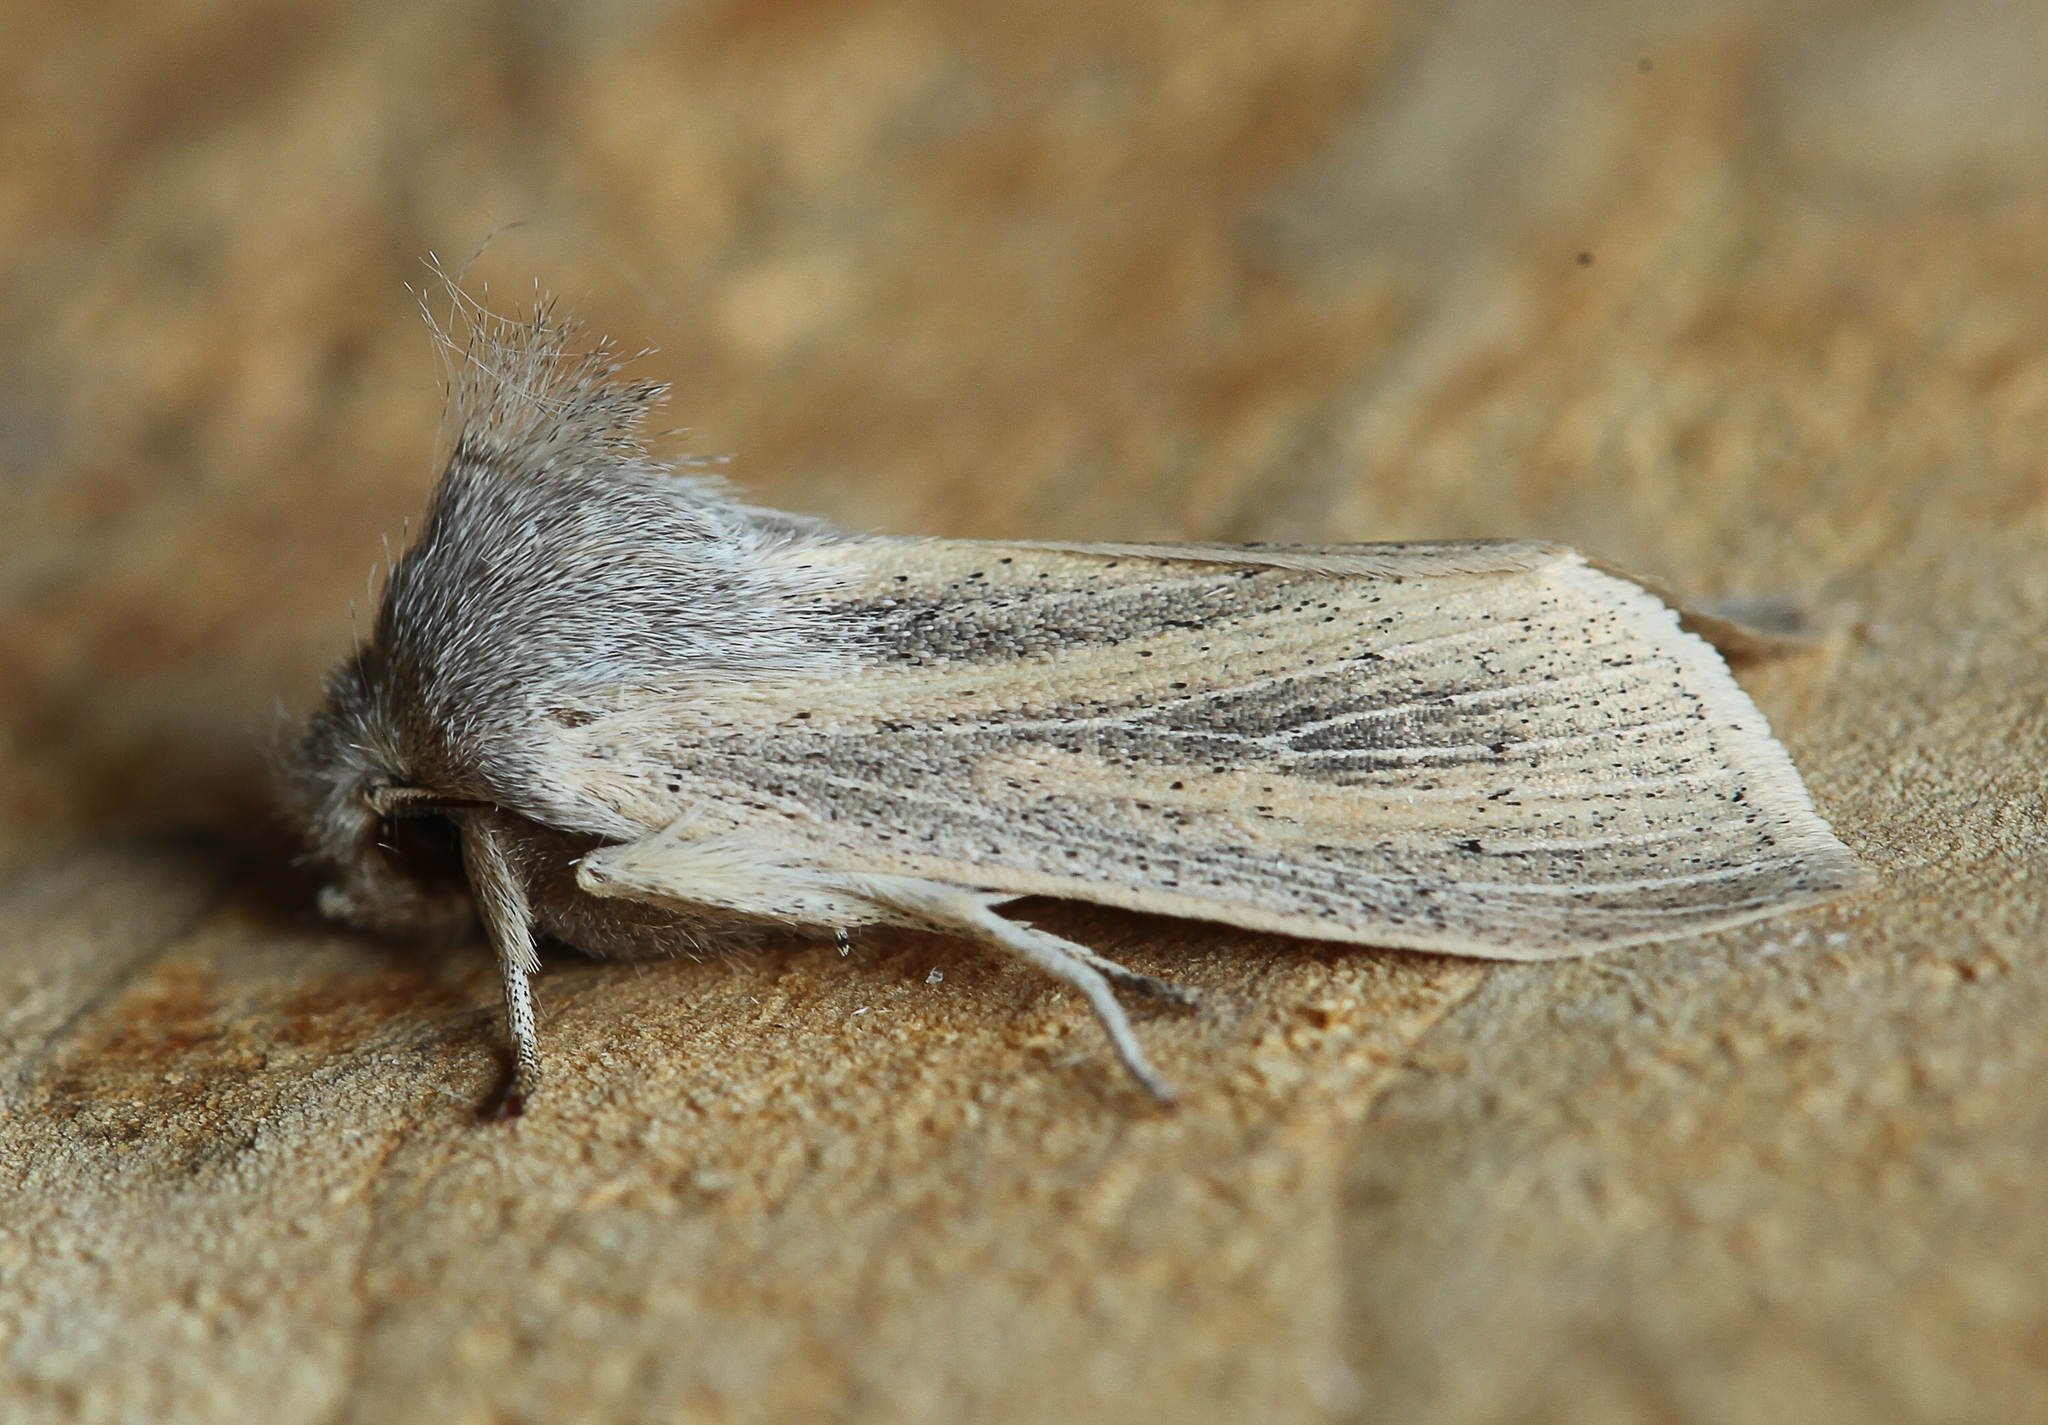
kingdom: Animalia
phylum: Arthropoda
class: Insecta
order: Lepidoptera
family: Noctuidae
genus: Rhizedra
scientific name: Rhizedra lutosa
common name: Large wainscot
